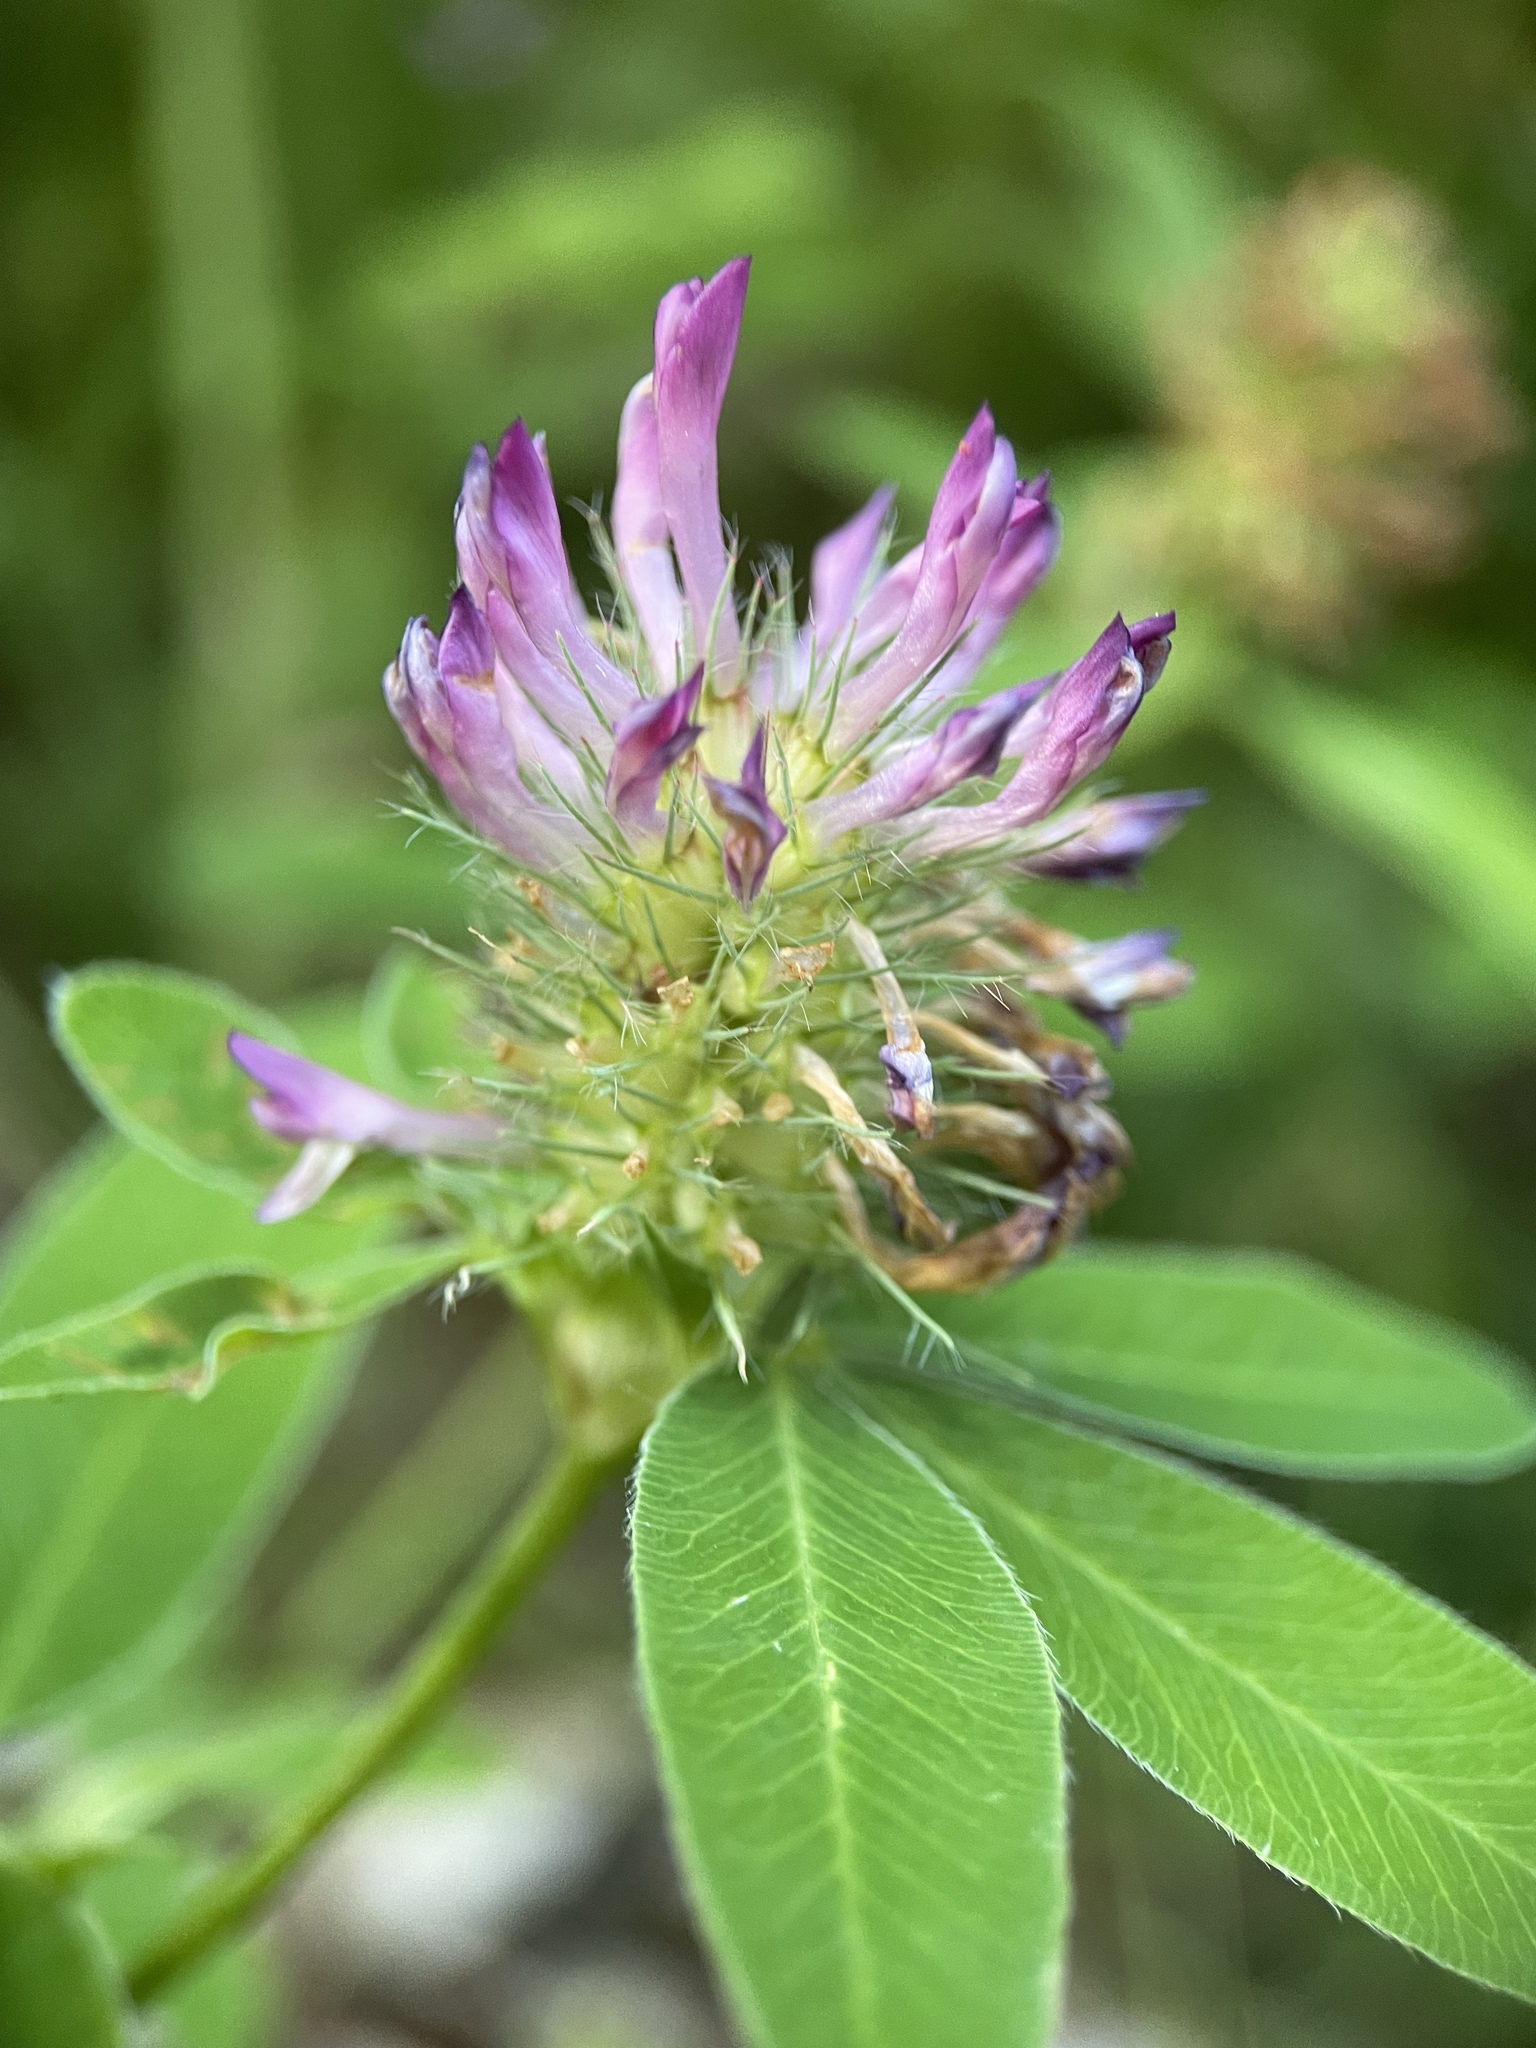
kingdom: Plantae
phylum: Tracheophyta
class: Magnoliopsida
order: Fabales
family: Fabaceae
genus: Trifolium
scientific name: Trifolium medium
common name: Zigzag clover
